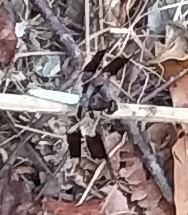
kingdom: Animalia
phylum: Arthropoda
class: Insecta
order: Odonata
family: Libellulidae
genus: Plathemis
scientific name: Plathemis lydia
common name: Common whitetail
